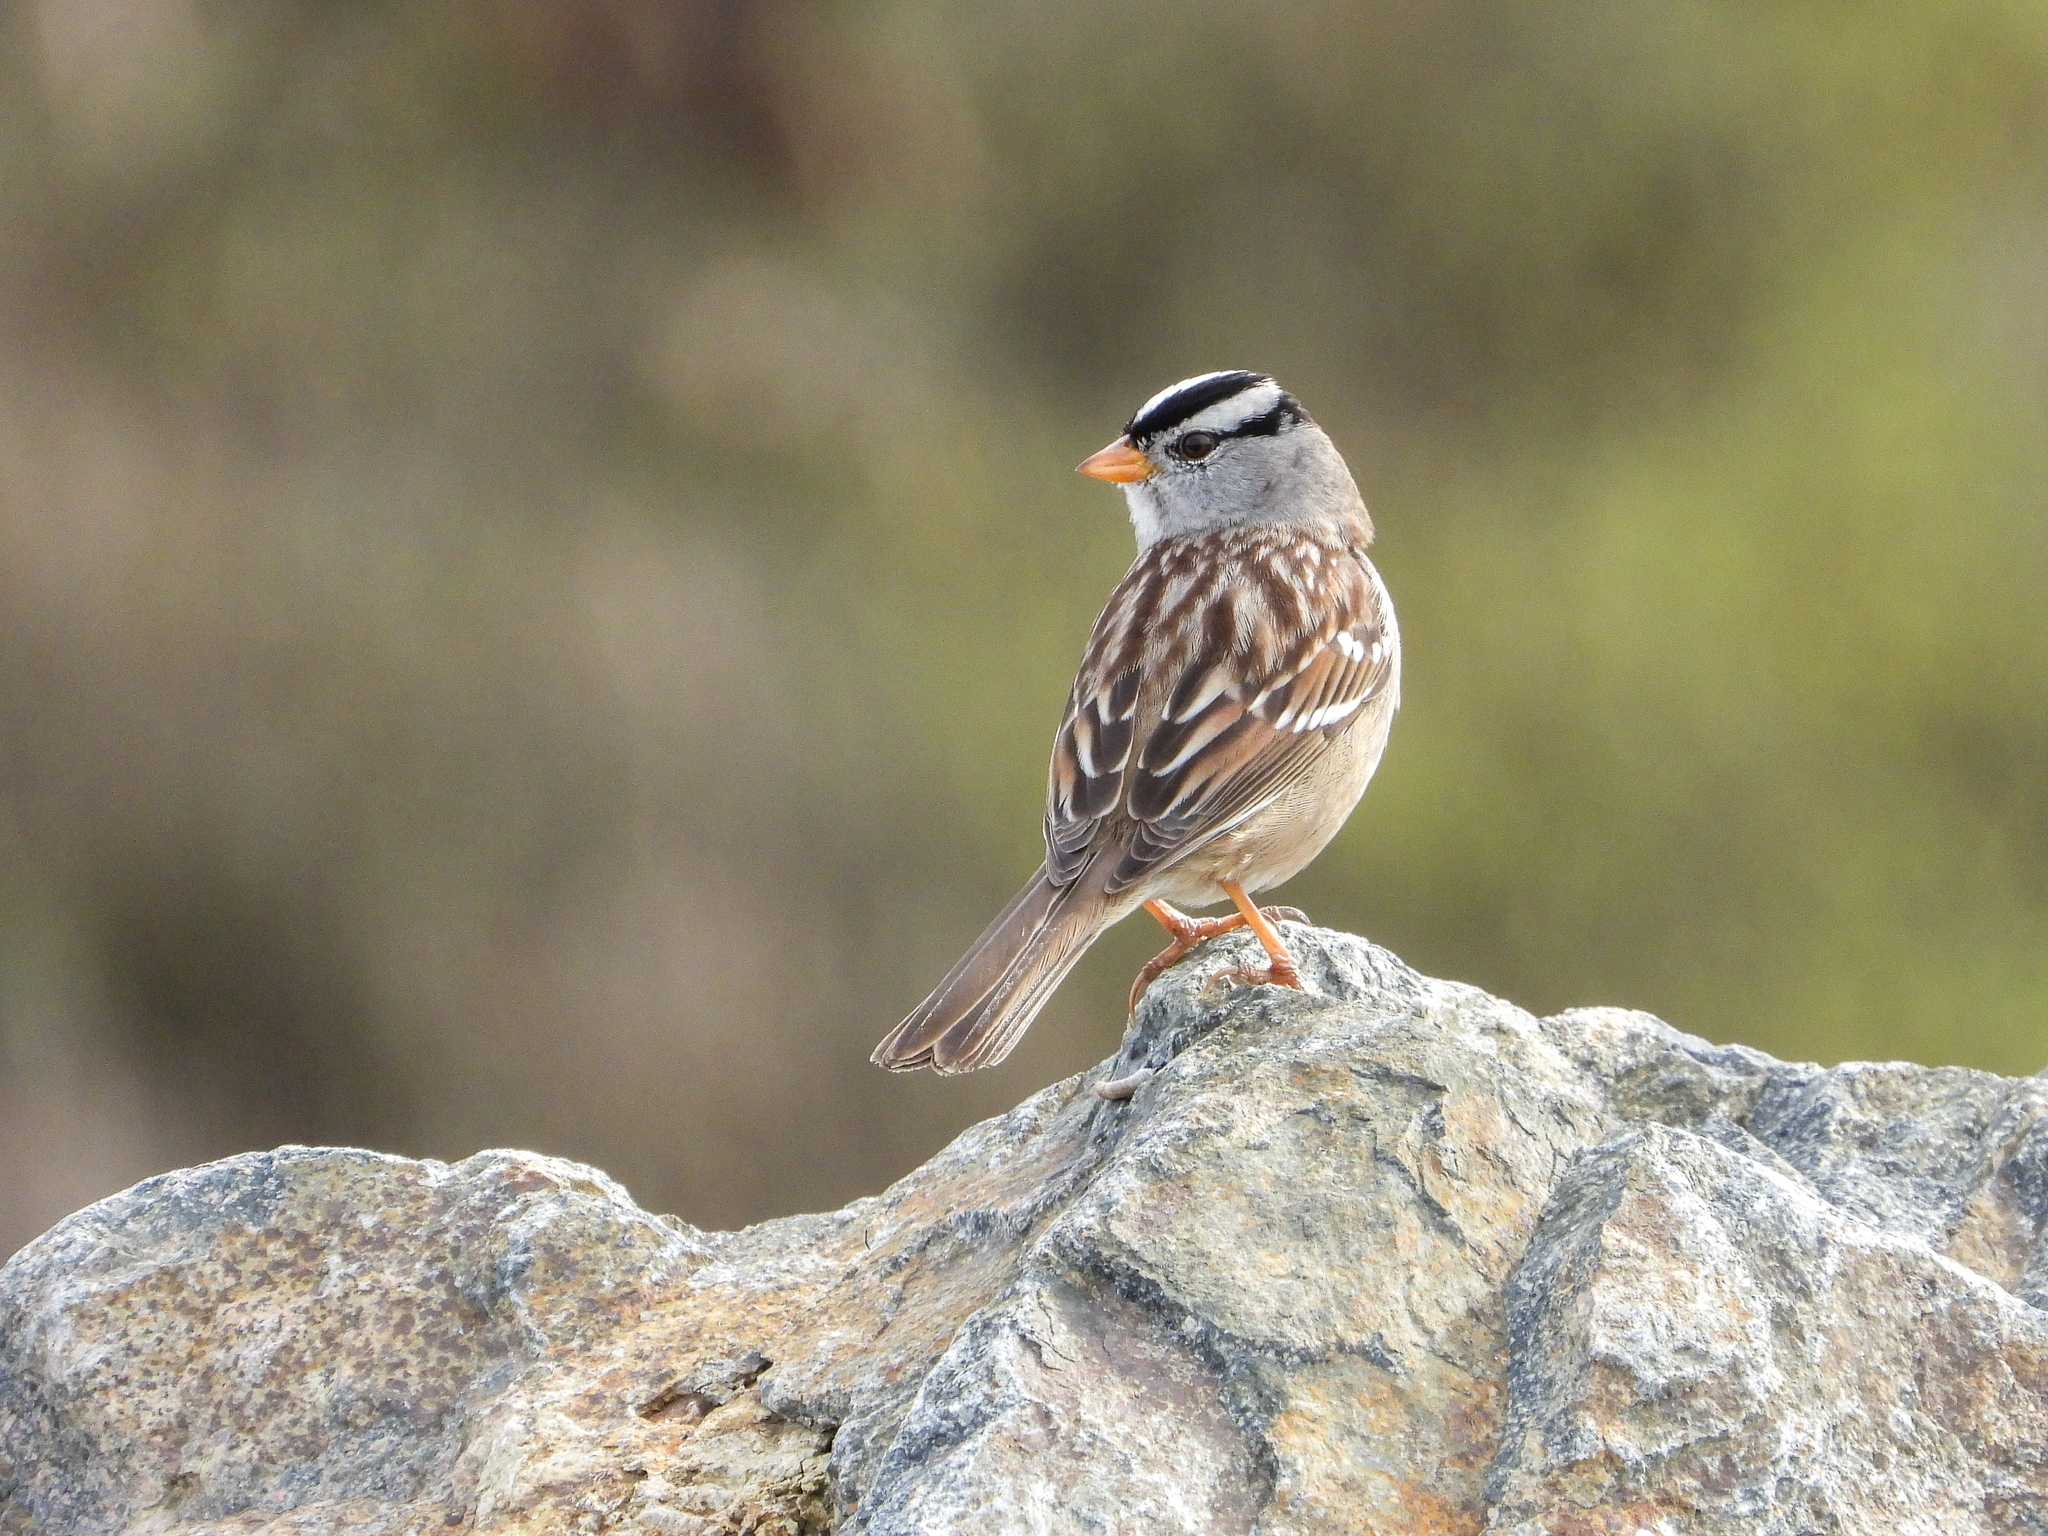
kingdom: Animalia
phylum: Chordata
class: Aves
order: Passeriformes
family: Passerellidae
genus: Zonotrichia
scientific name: Zonotrichia leucophrys
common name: White-crowned sparrow
